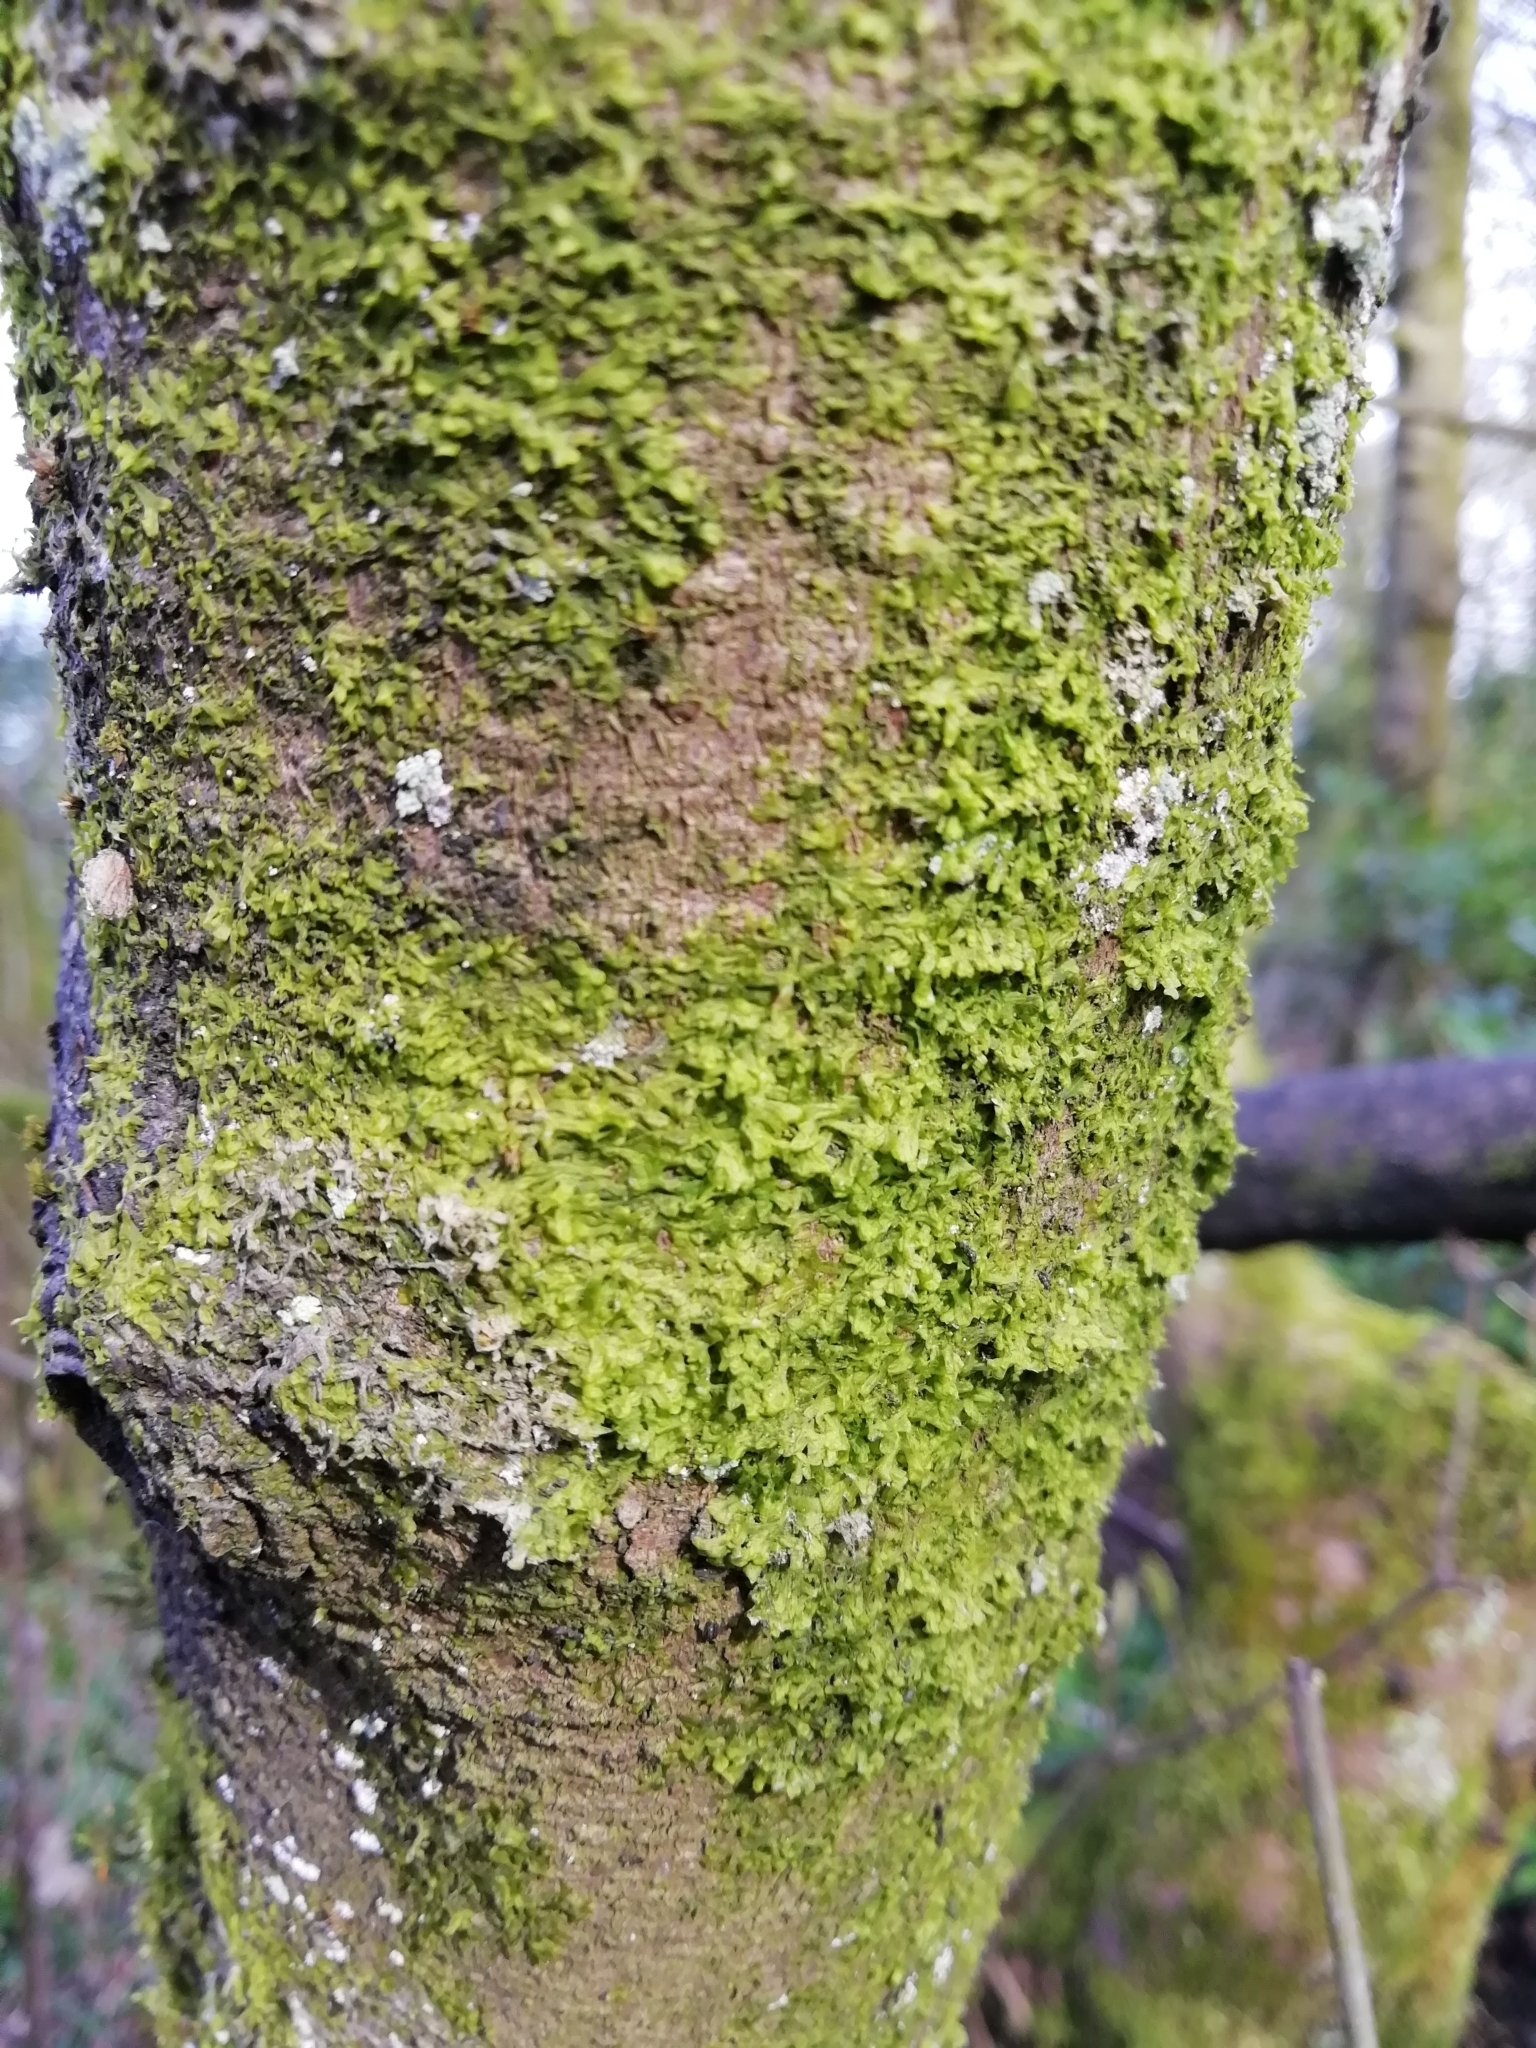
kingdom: Plantae
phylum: Marchantiophyta
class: Jungermanniopsida
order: Metzgeriales
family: Metzgeriaceae
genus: Metzgeria
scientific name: Metzgeria violacea
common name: Blueish veilwort
